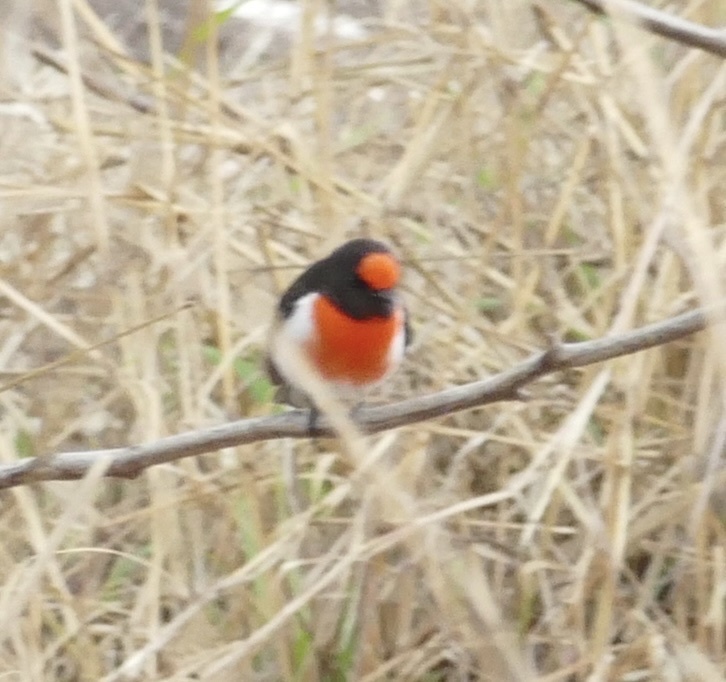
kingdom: Animalia
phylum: Chordata
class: Aves
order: Passeriformes
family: Petroicidae
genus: Petroica
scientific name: Petroica goodenovii
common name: Red-capped robin
